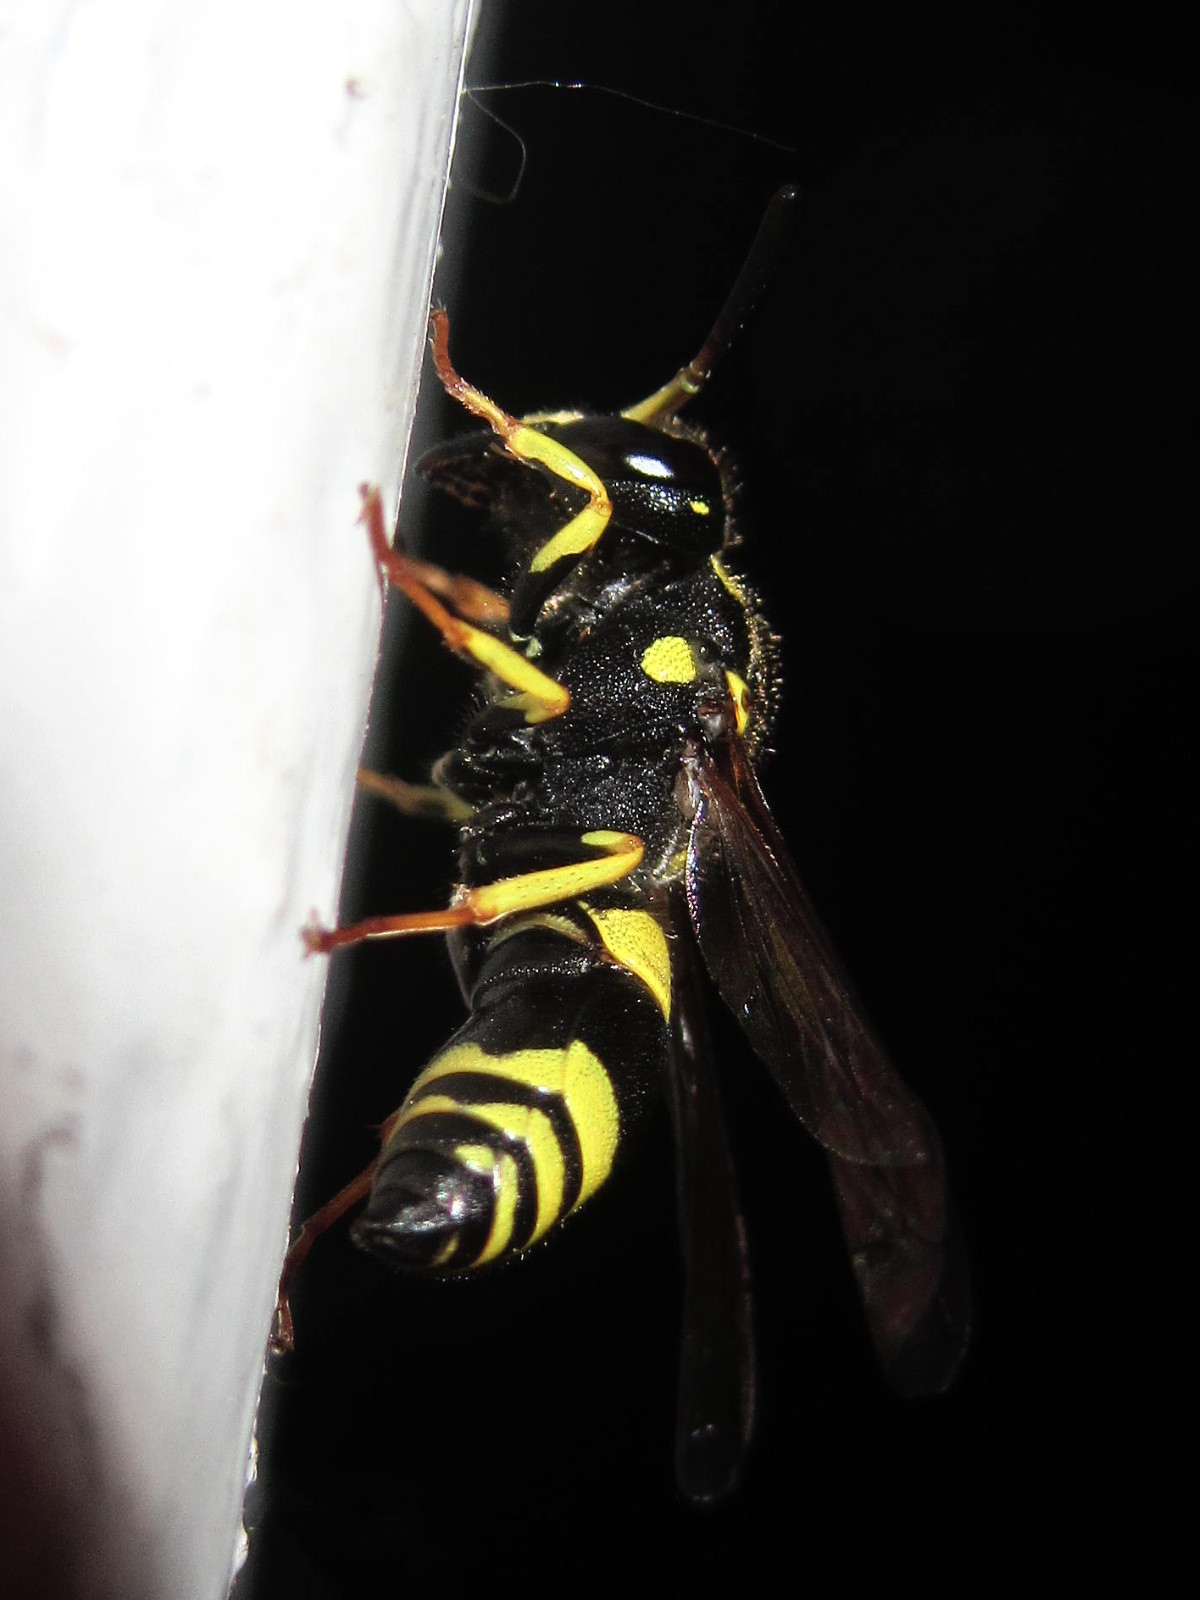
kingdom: Animalia
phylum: Arthropoda
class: Insecta
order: Hymenoptera
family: Vespidae
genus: Ancistrocerus
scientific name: Ancistrocerus gazella
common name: European tube wasp
